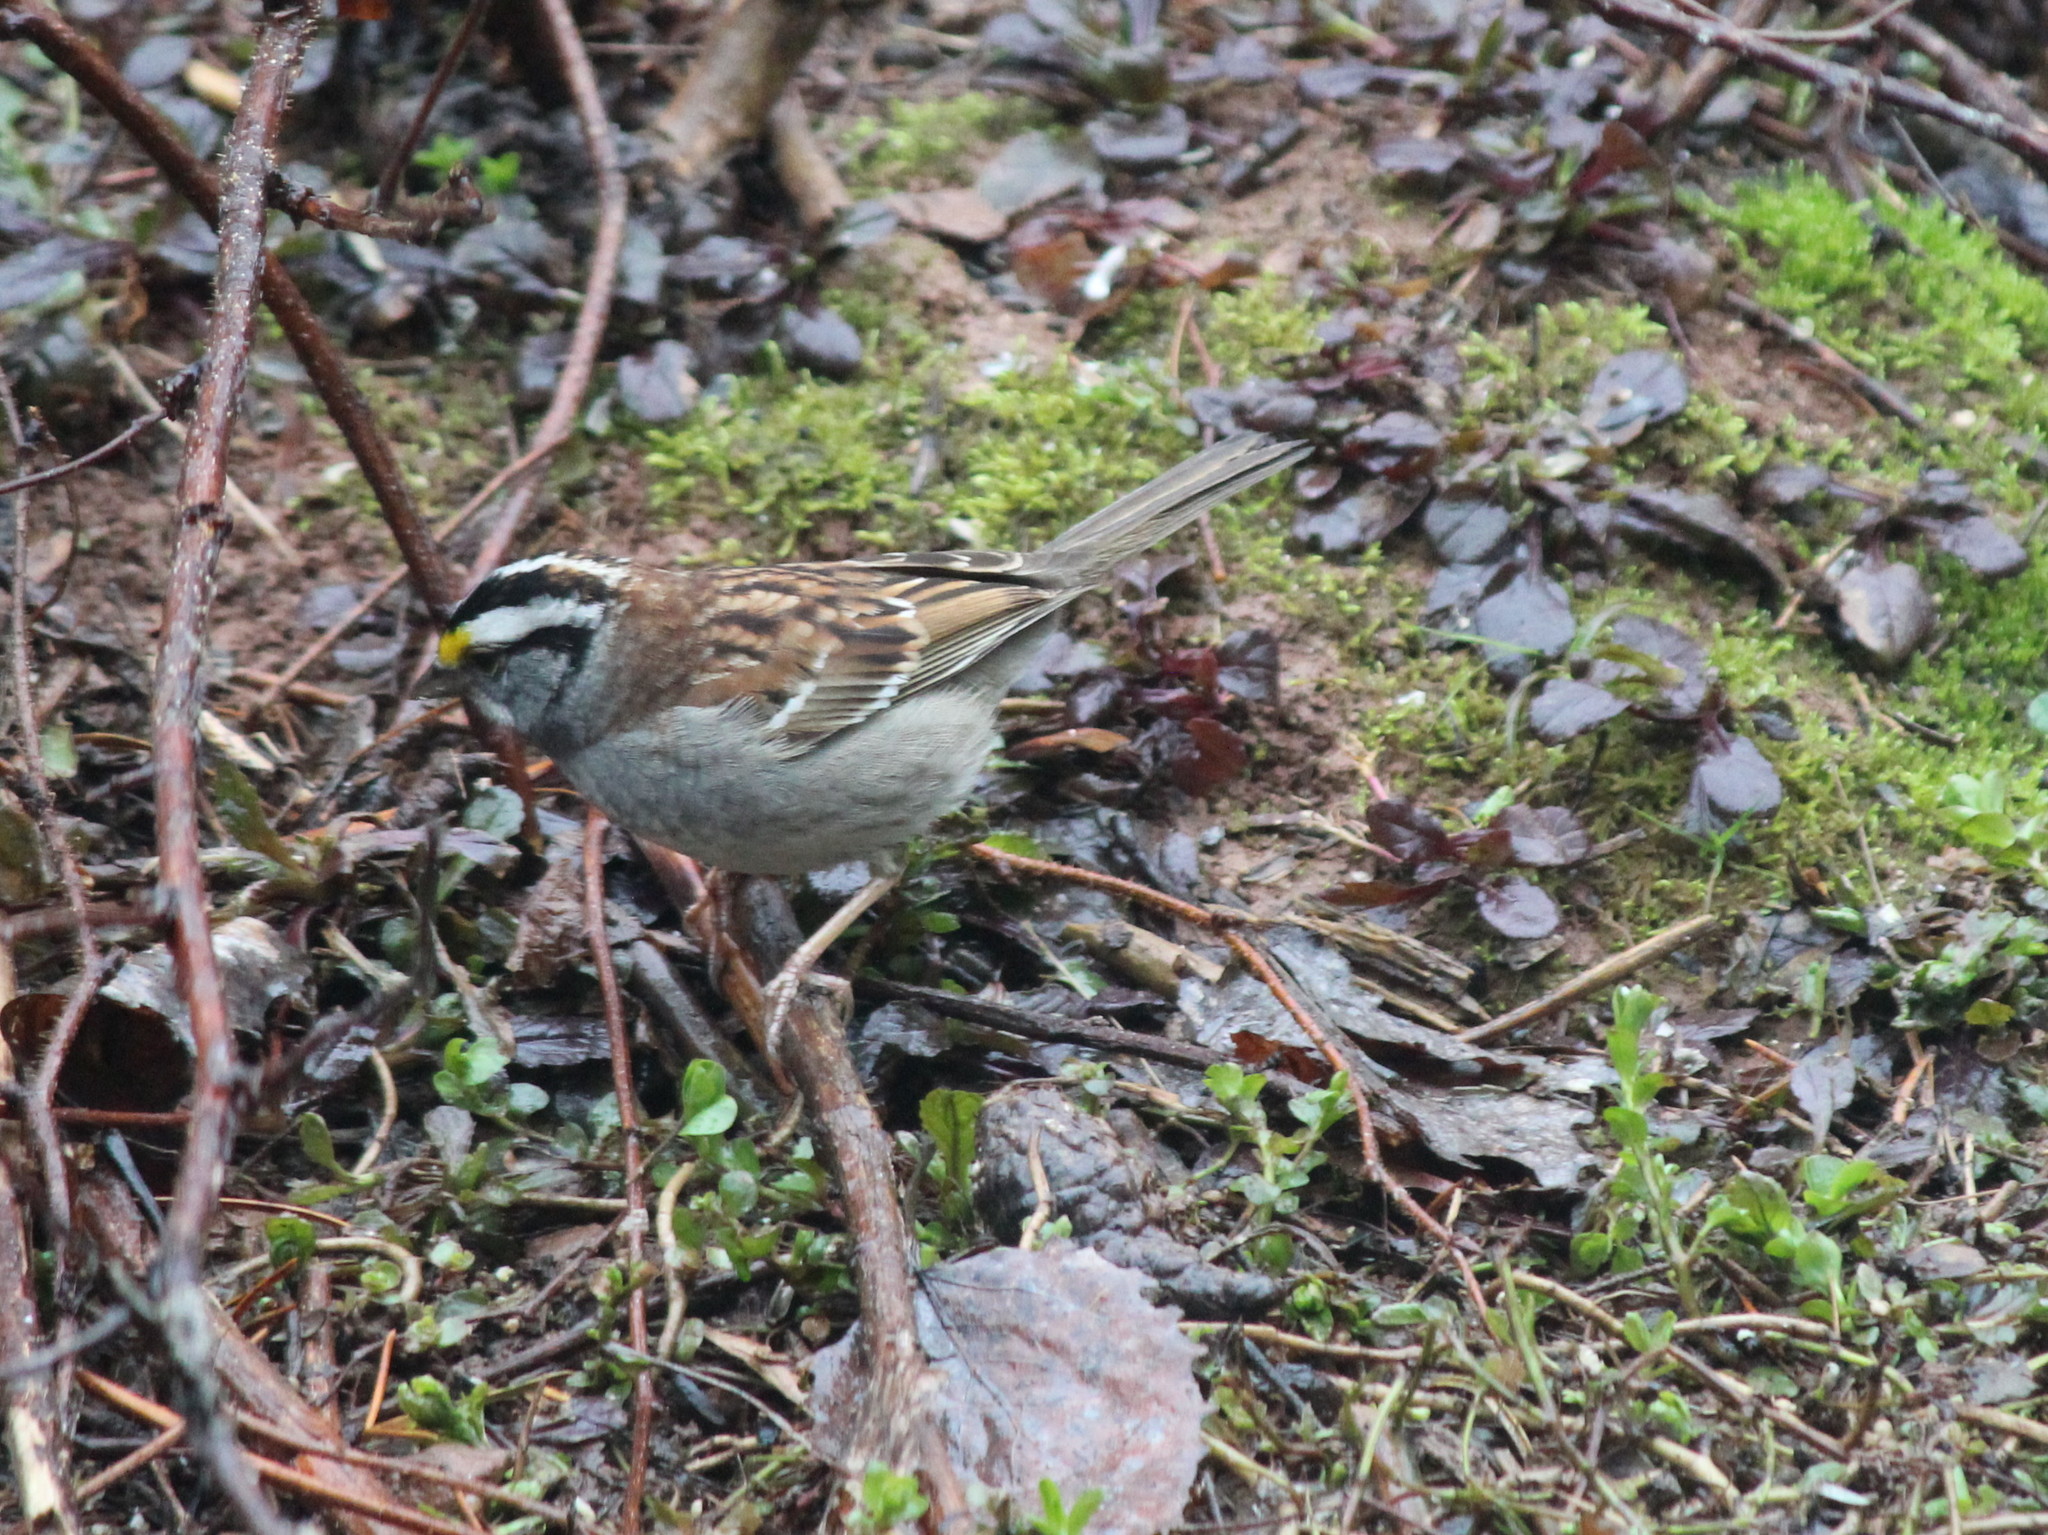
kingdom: Animalia
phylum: Chordata
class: Aves
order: Passeriformes
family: Passerellidae
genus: Zonotrichia
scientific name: Zonotrichia albicollis
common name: White-throated sparrow
